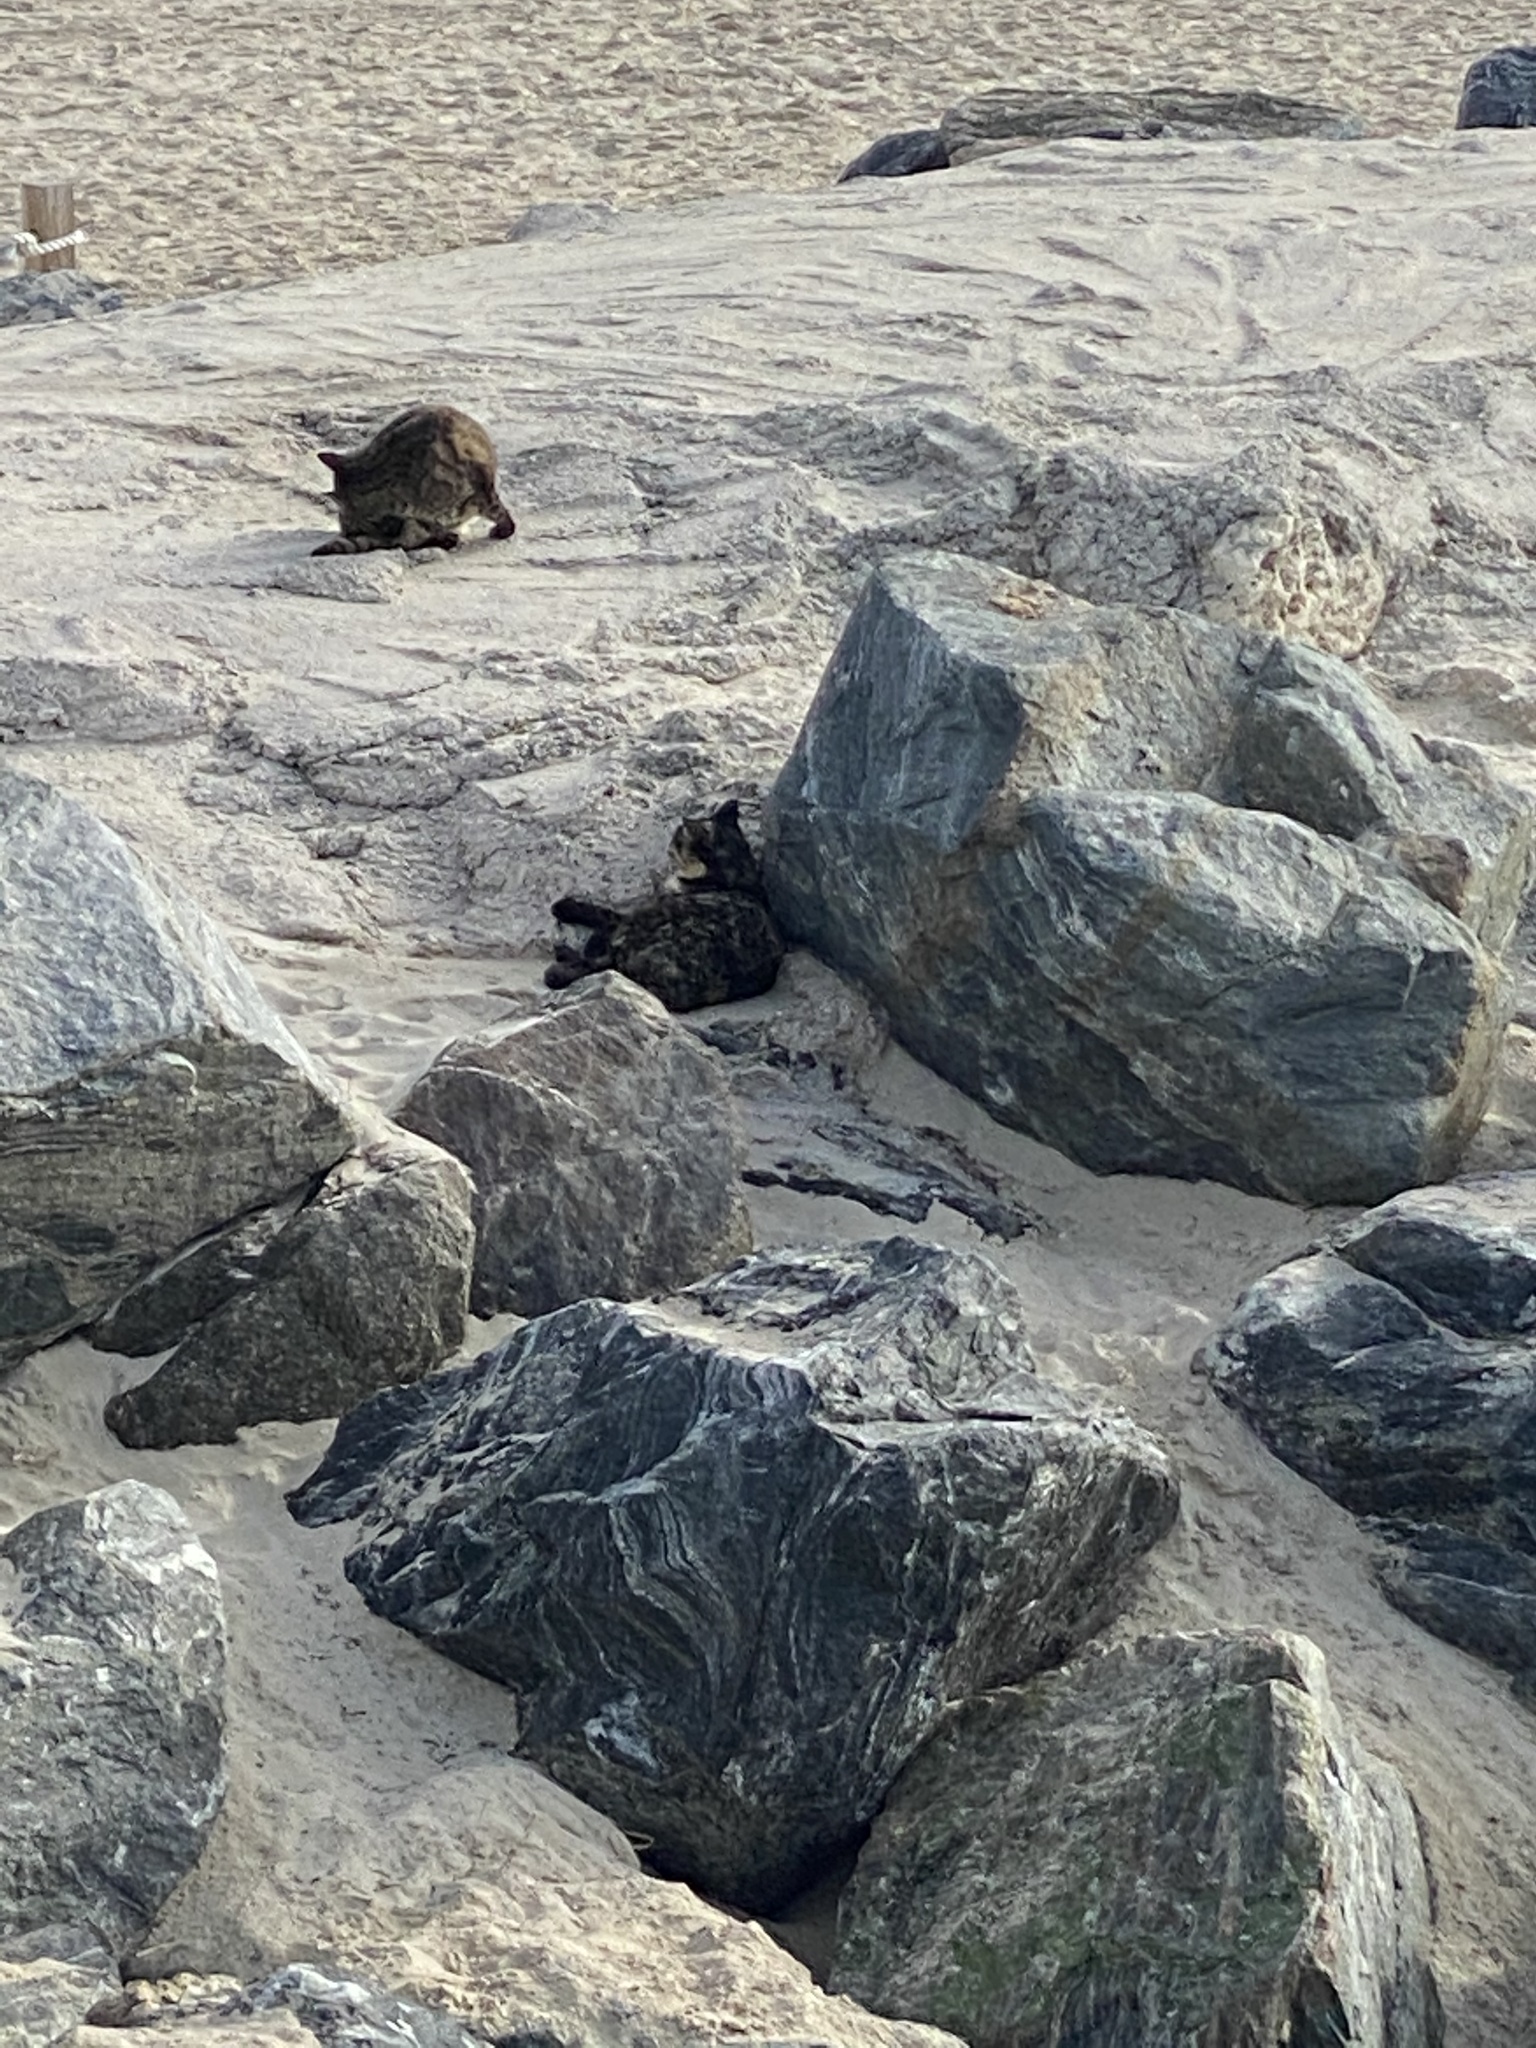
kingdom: Animalia
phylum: Chordata
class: Mammalia
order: Carnivora
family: Felidae
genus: Felis
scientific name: Felis catus
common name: Domestic cat
